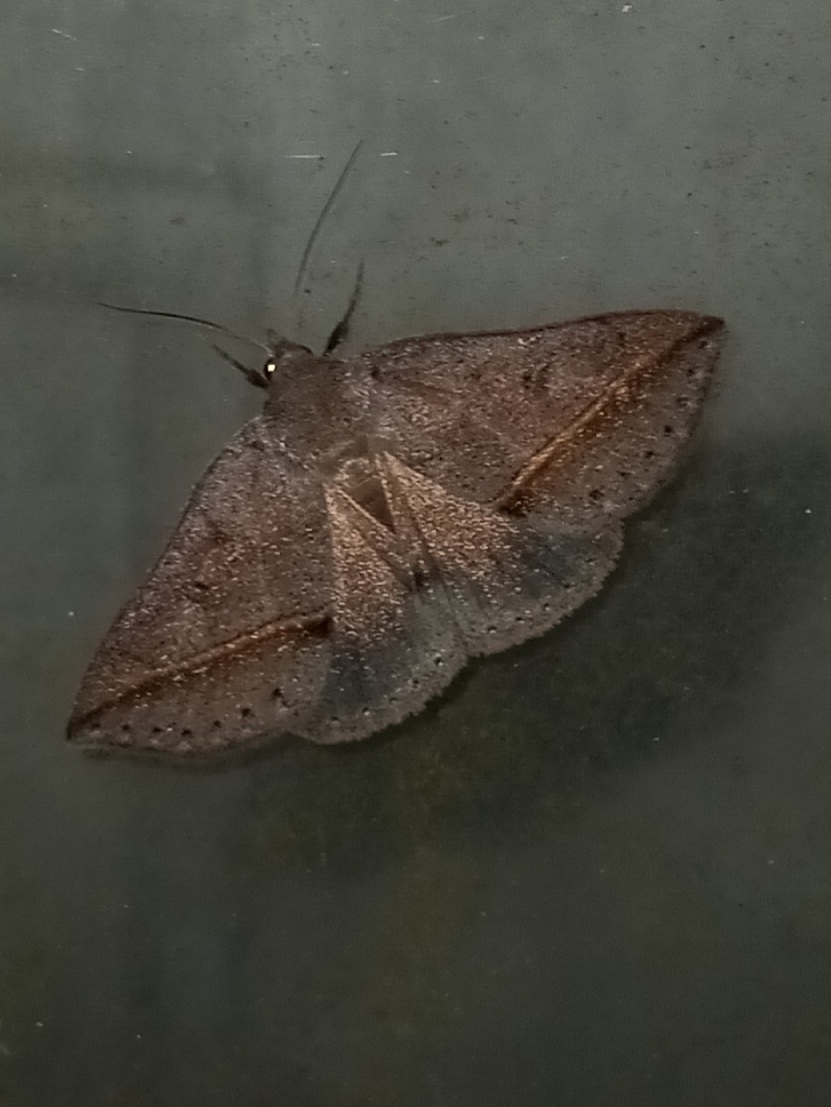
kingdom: Animalia
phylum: Arthropoda
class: Insecta
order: Lepidoptera
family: Erebidae
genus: Argyrostrotis
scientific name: Argyrostrotis flavistriaria
